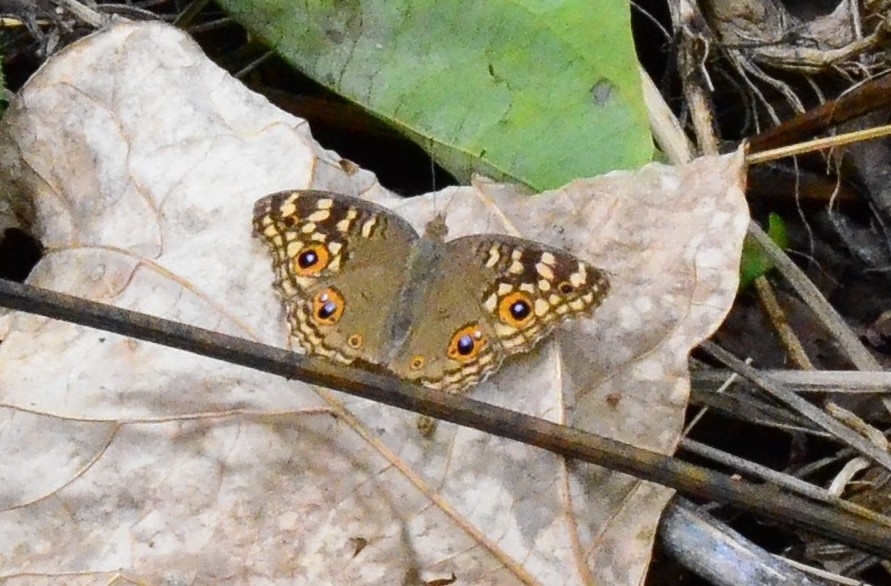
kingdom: Animalia
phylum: Arthropoda
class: Insecta
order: Lepidoptera
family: Nymphalidae
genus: Junonia
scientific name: Junonia lemonias
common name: Lemon pansy
